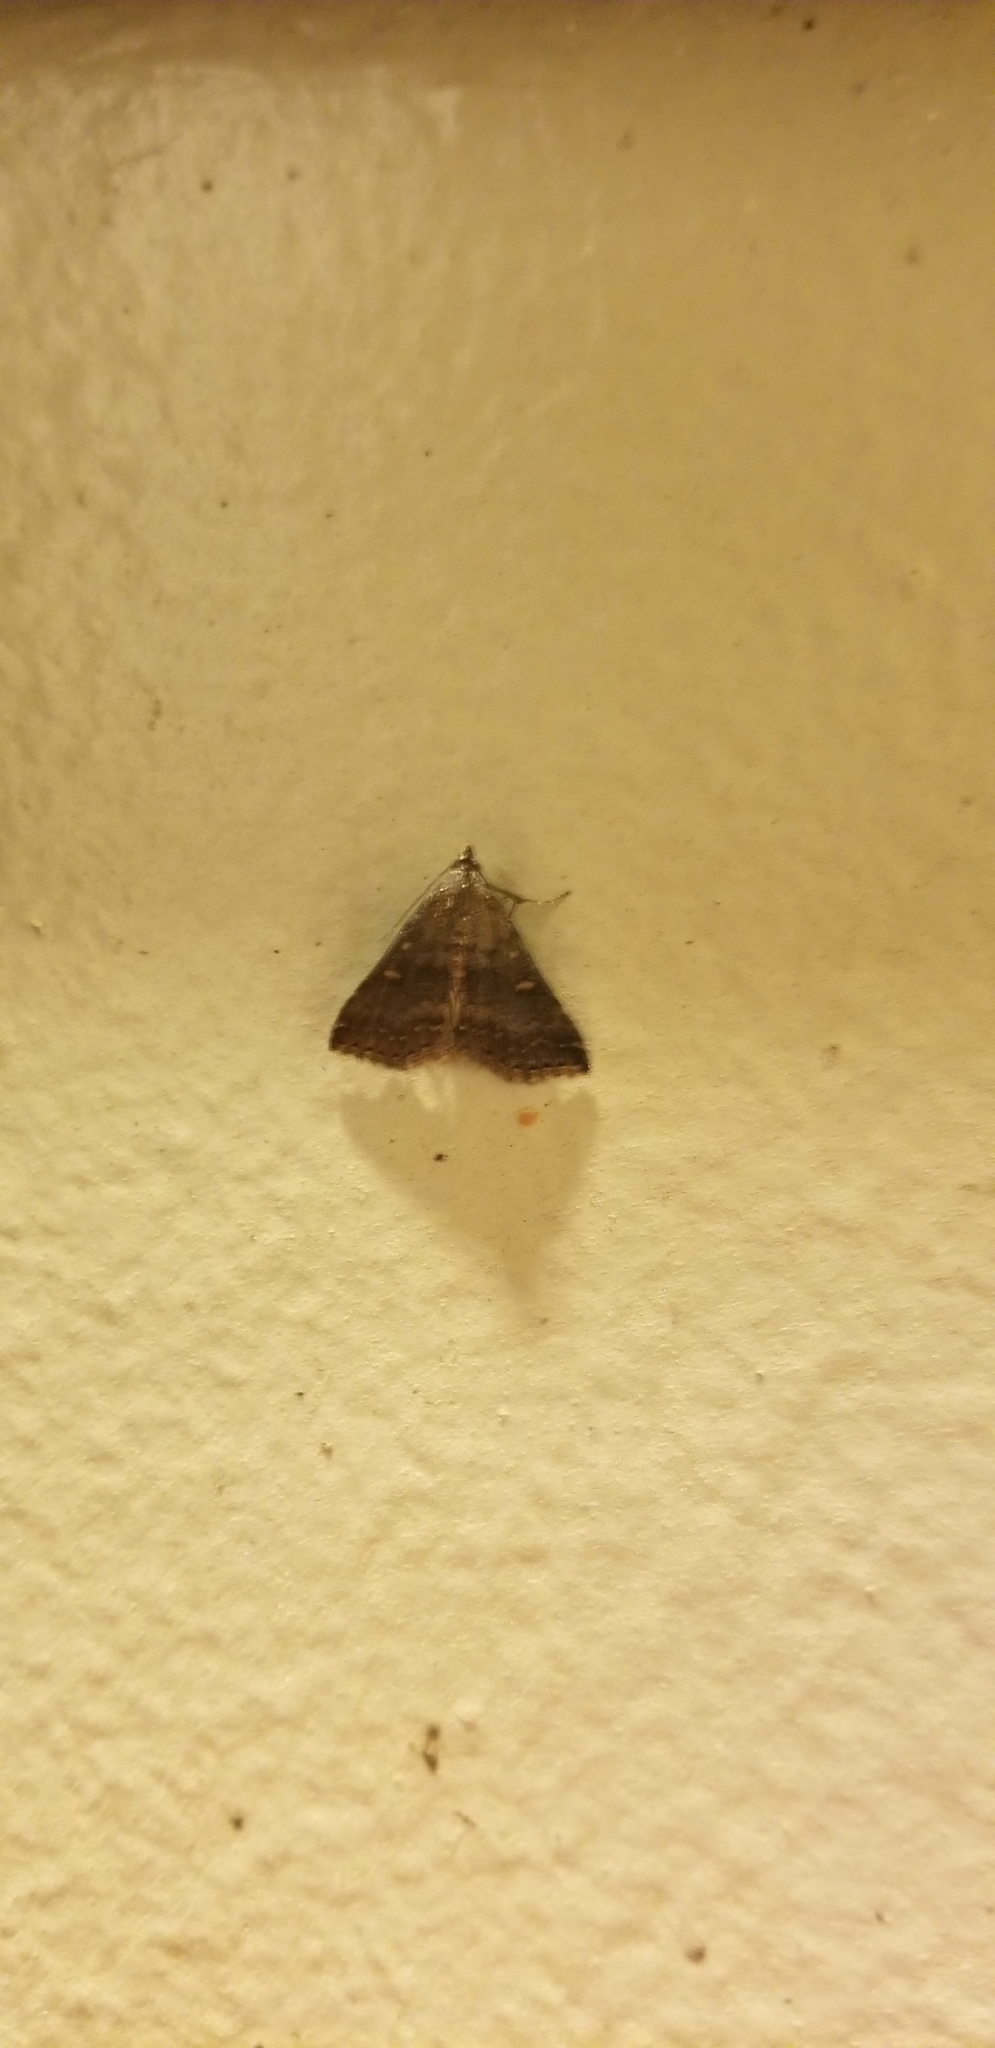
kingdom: Animalia
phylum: Arthropoda
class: Insecta
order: Lepidoptera
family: Erebidae
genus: Tetanolita
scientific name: Tetanolita mynesalis
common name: Smoky tetanolita moth
